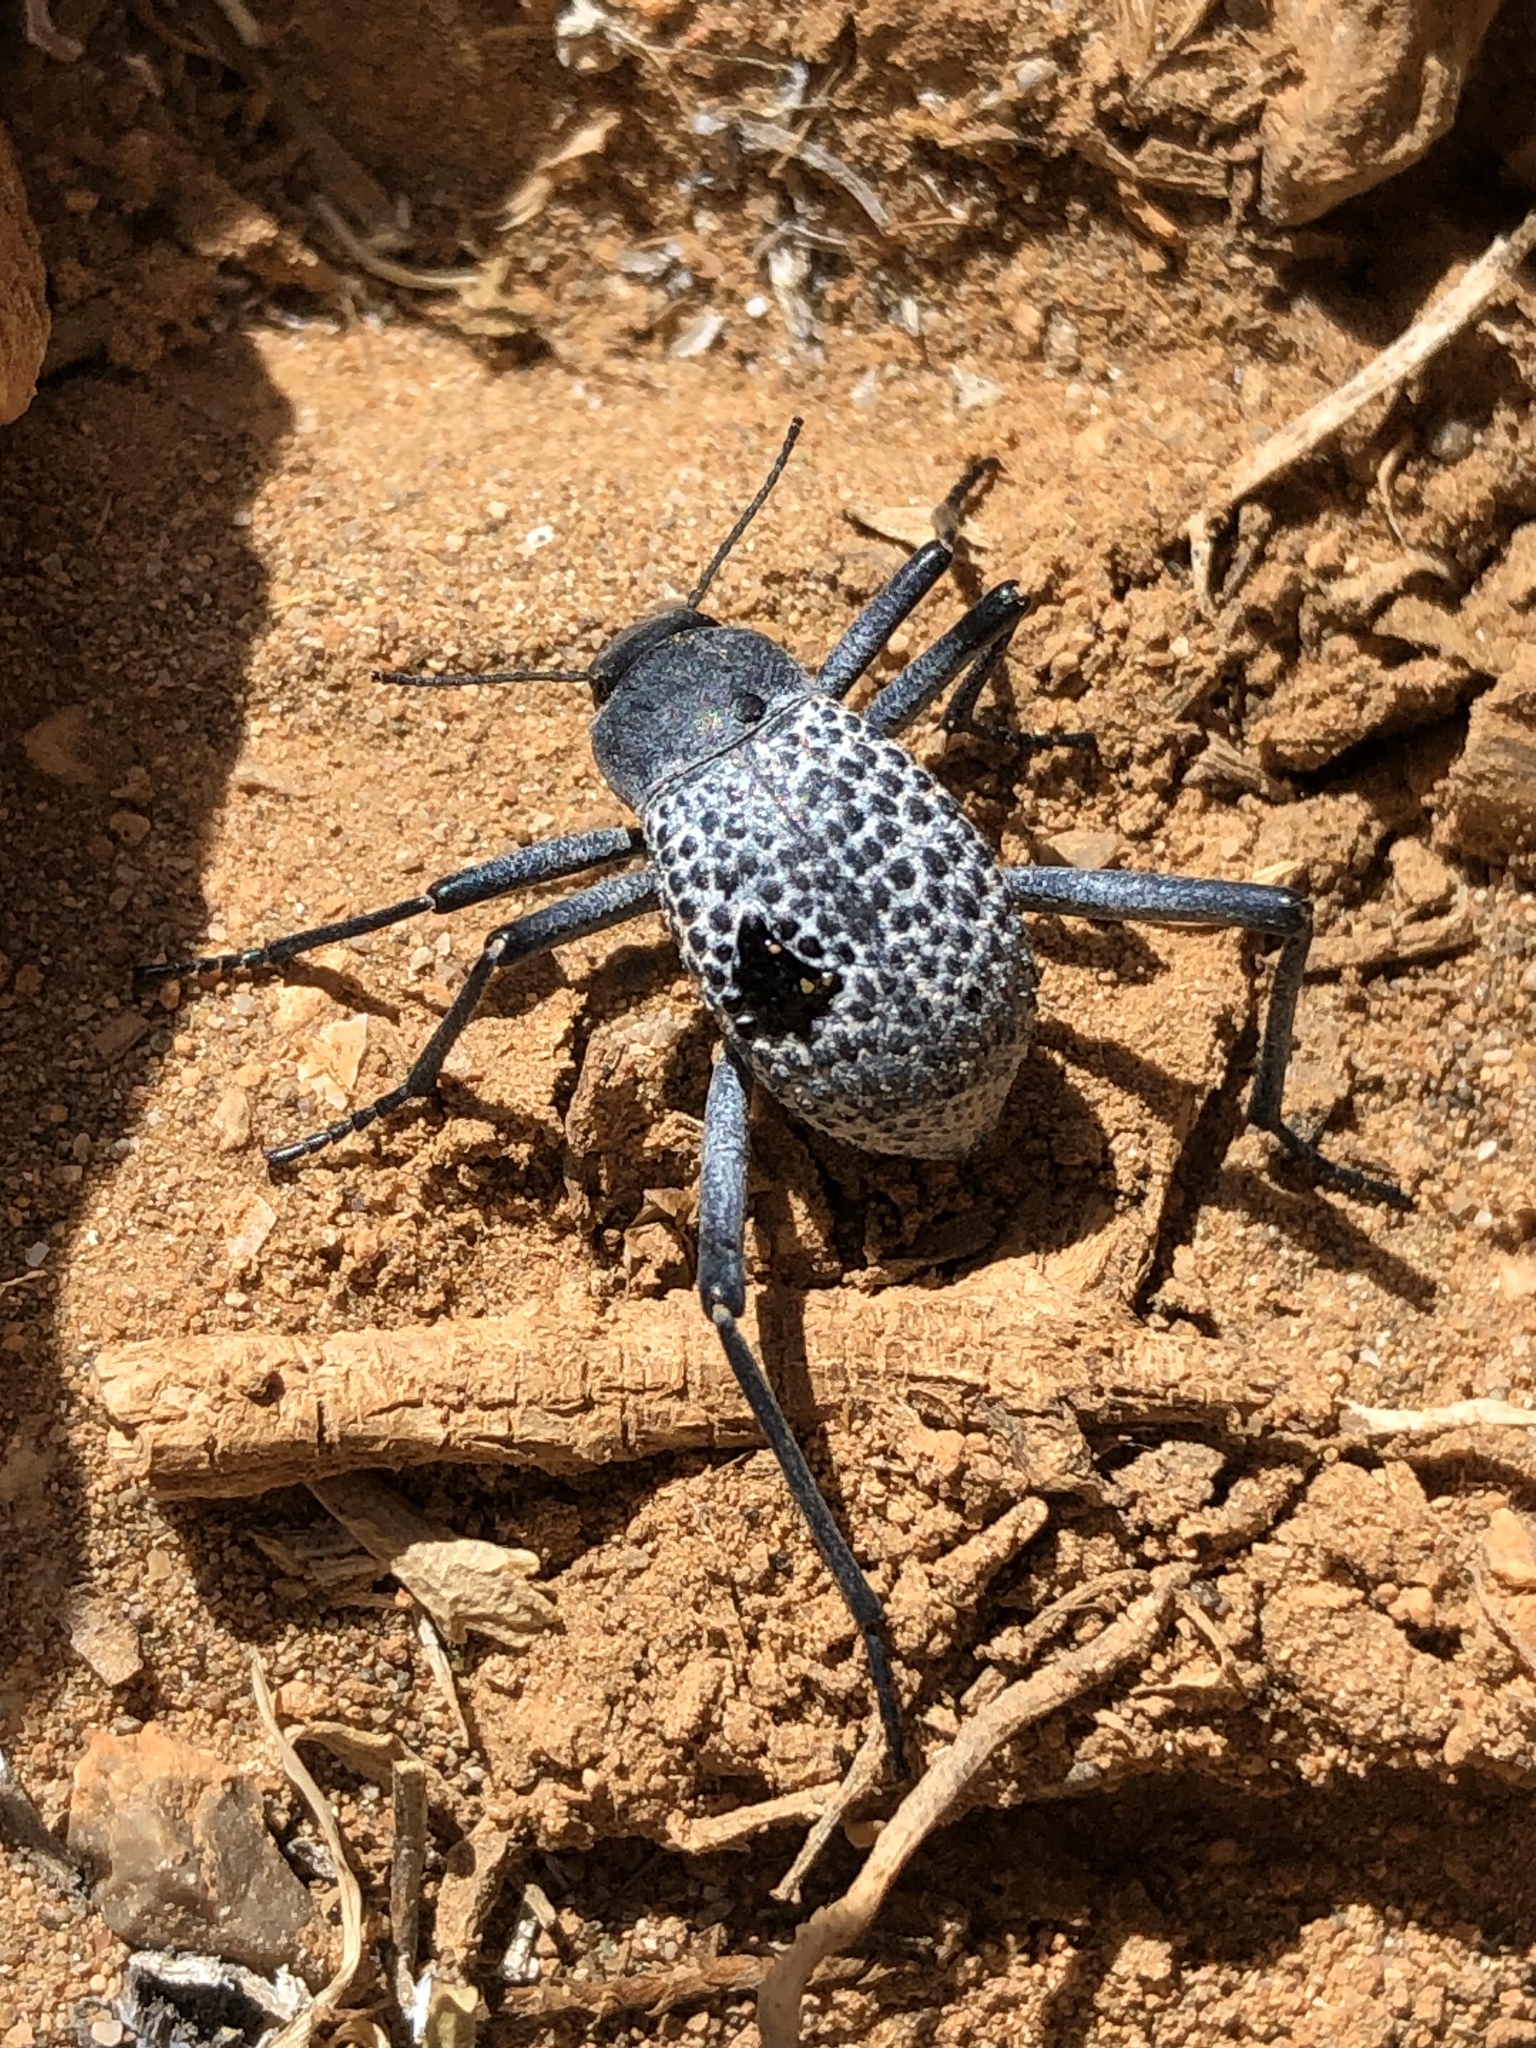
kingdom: Animalia
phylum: Arthropoda
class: Insecta
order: Coleoptera
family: Tenebrionidae
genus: Adesmia
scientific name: Adesmia
